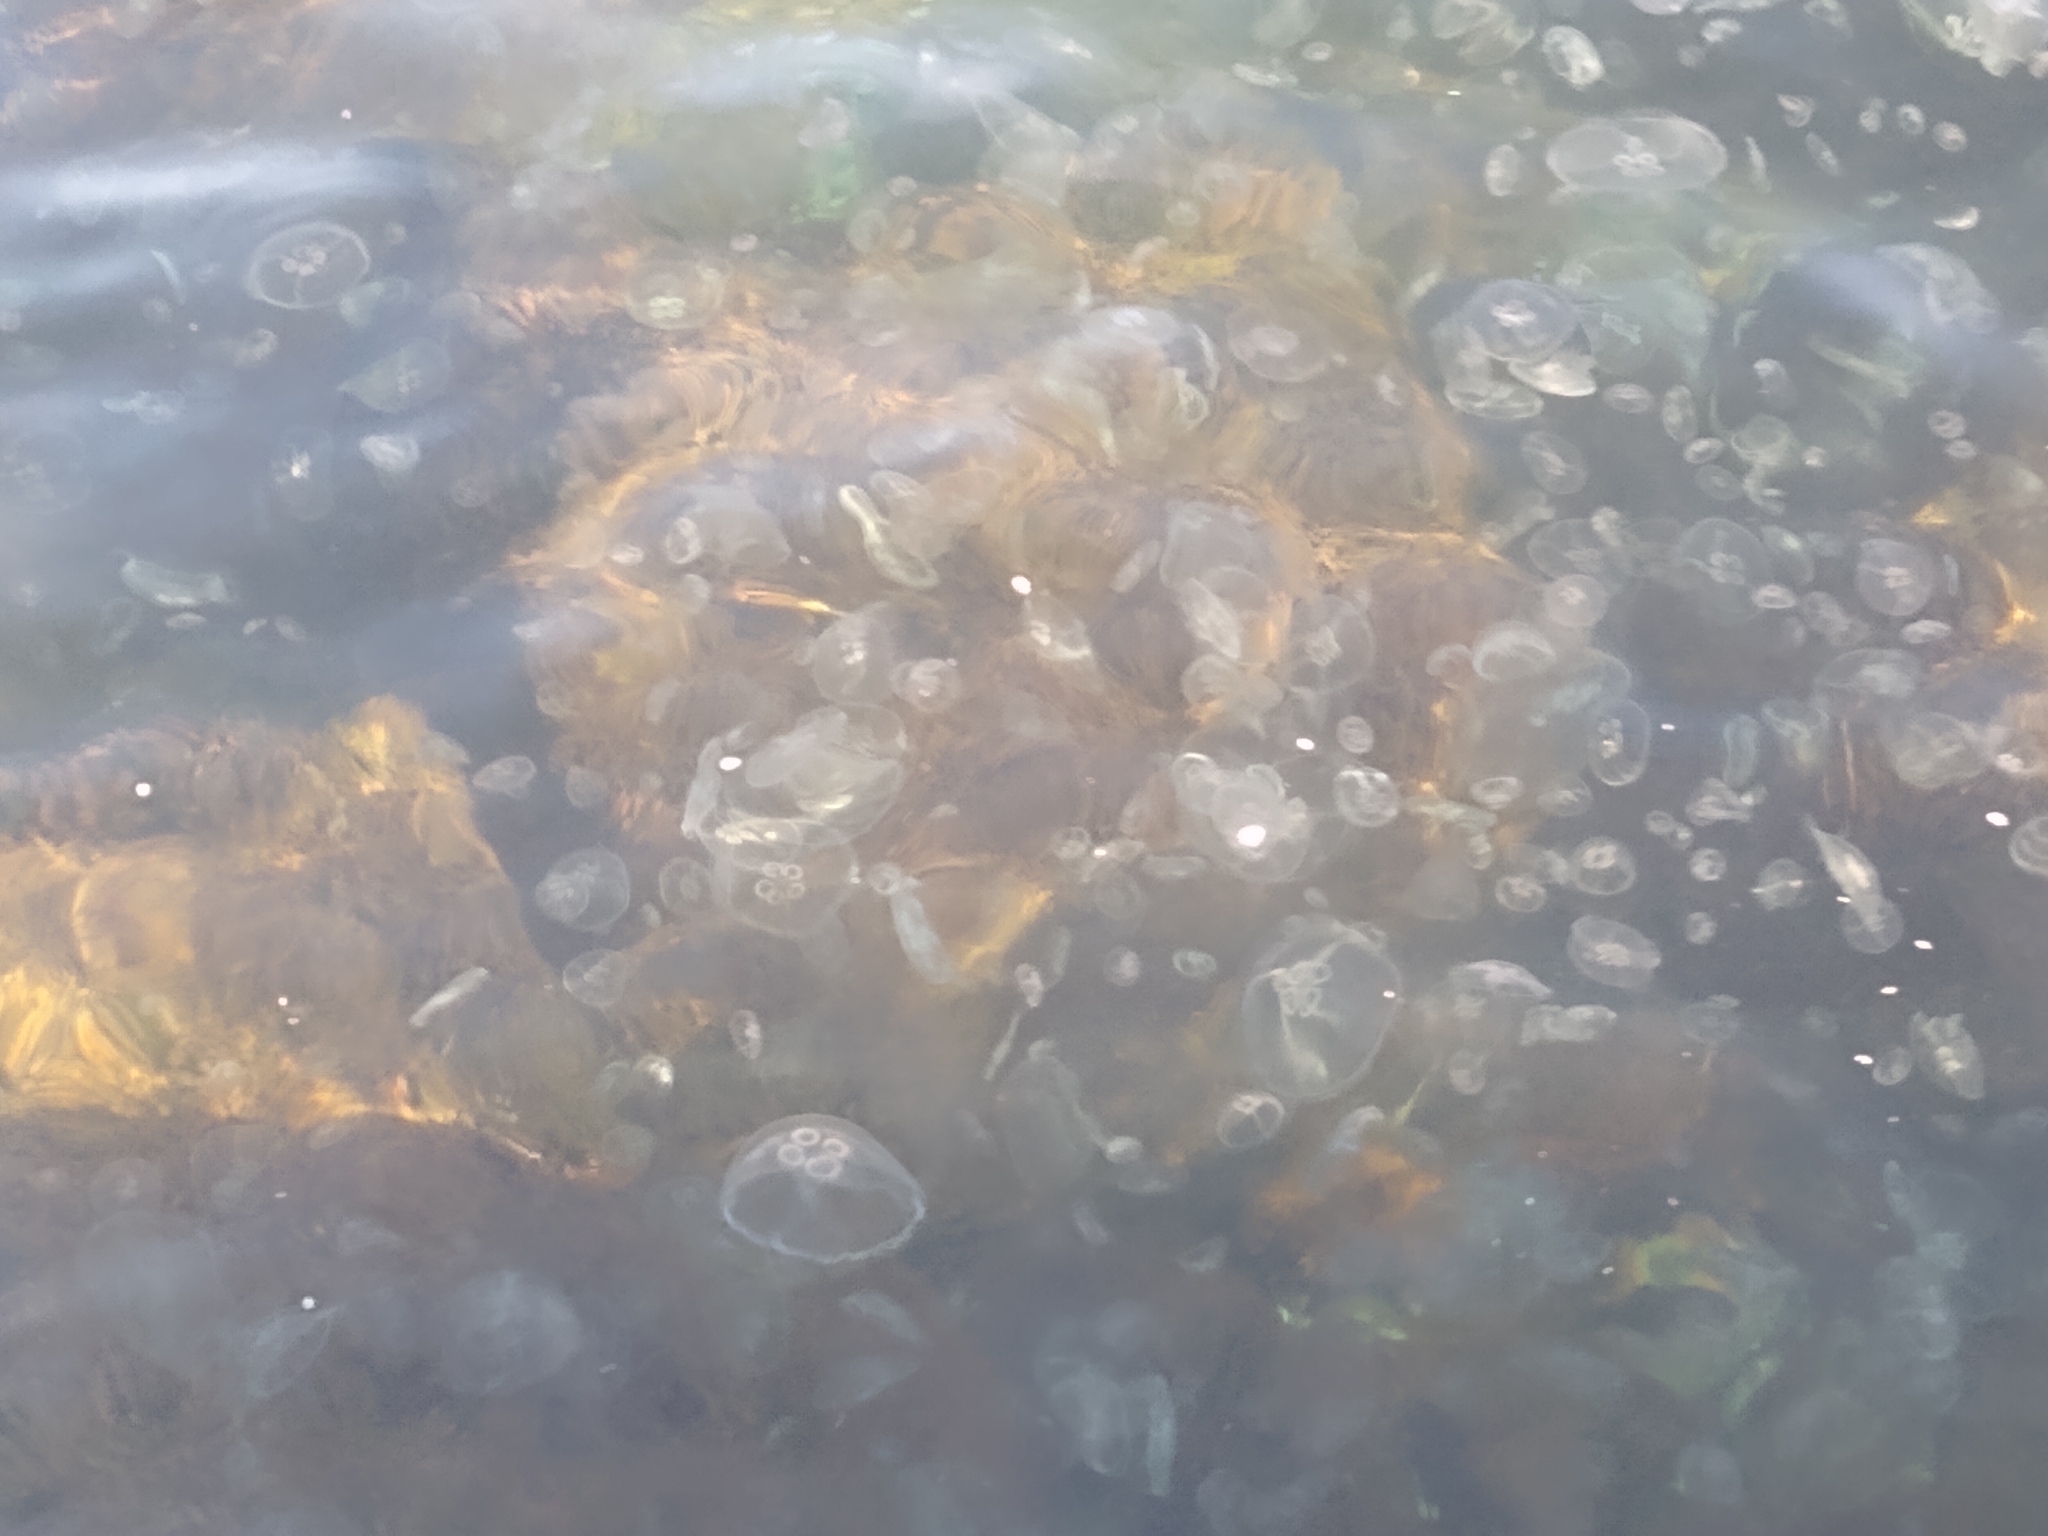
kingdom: Animalia
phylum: Cnidaria
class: Scyphozoa
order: Semaeostomeae
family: Ulmaridae
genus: Aurelia
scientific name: Aurelia aurita
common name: Moon jellyfish
